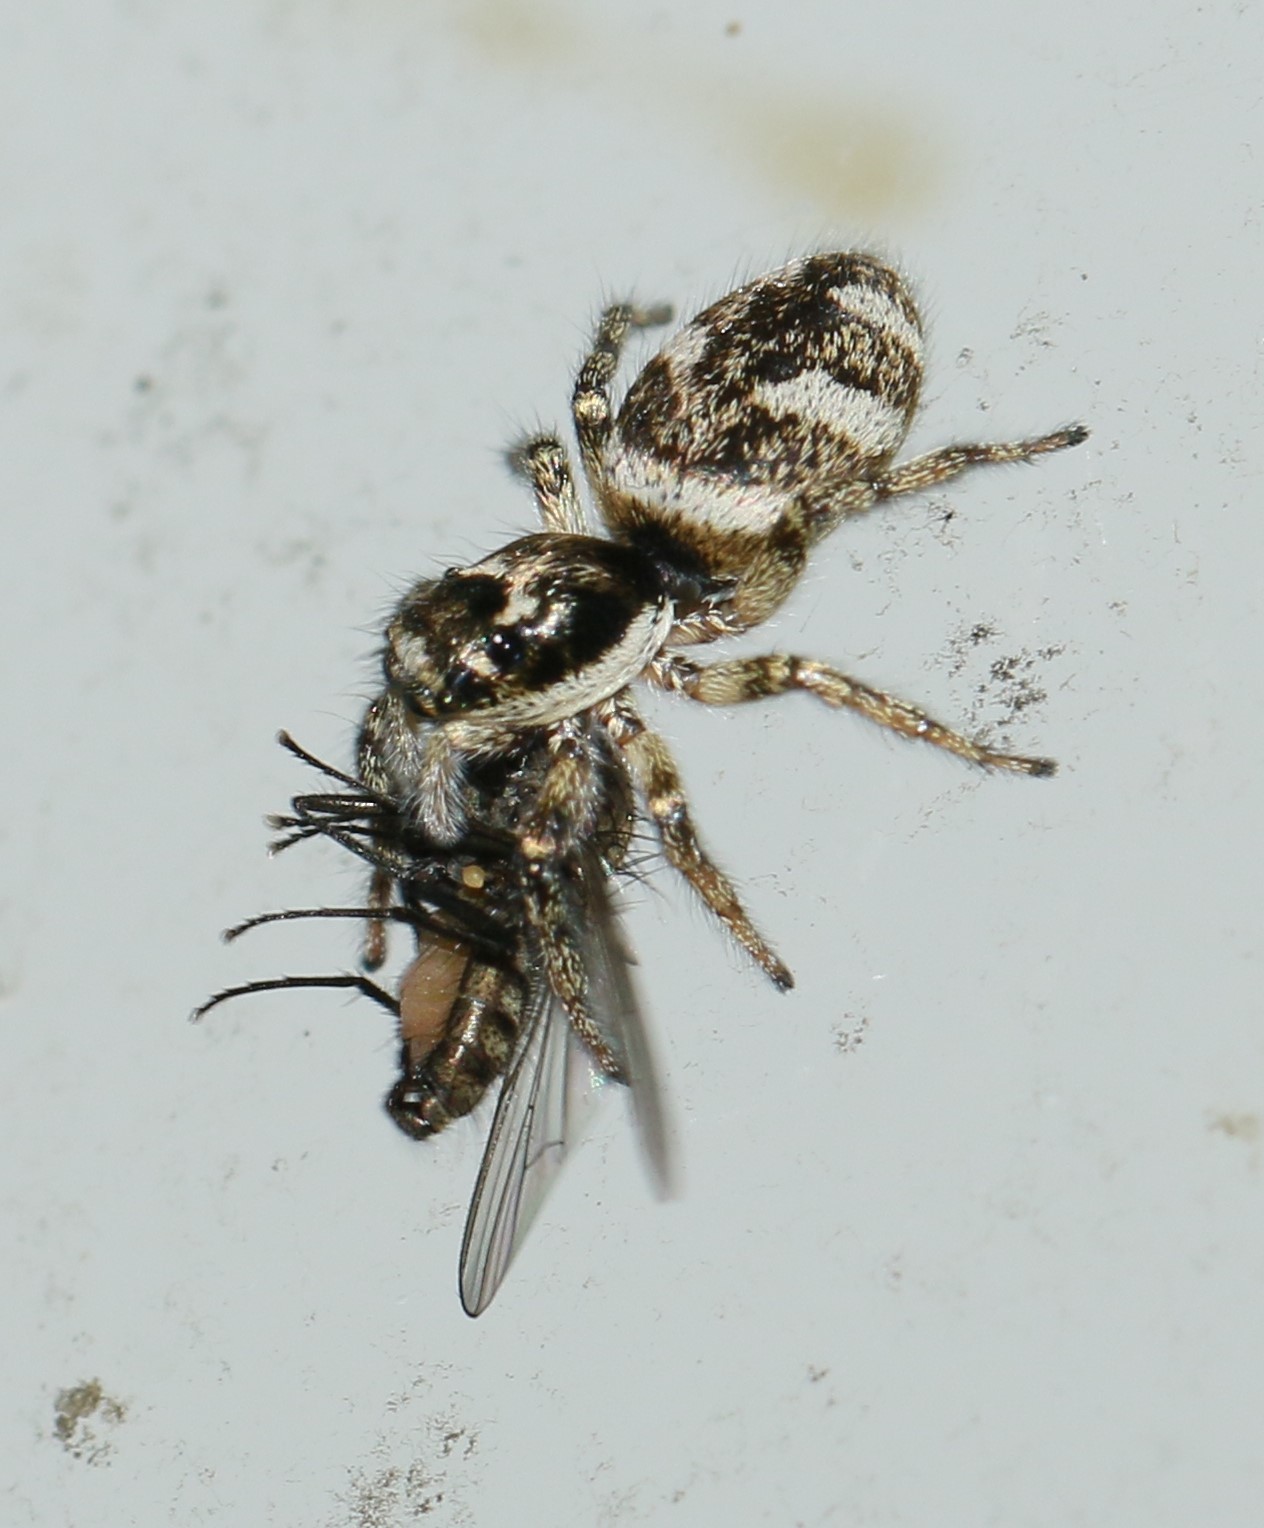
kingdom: Animalia
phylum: Arthropoda
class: Arachnida
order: Araneae
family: Salticidae
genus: Salticus
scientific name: Salticus scenicus
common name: Zebra jumper
